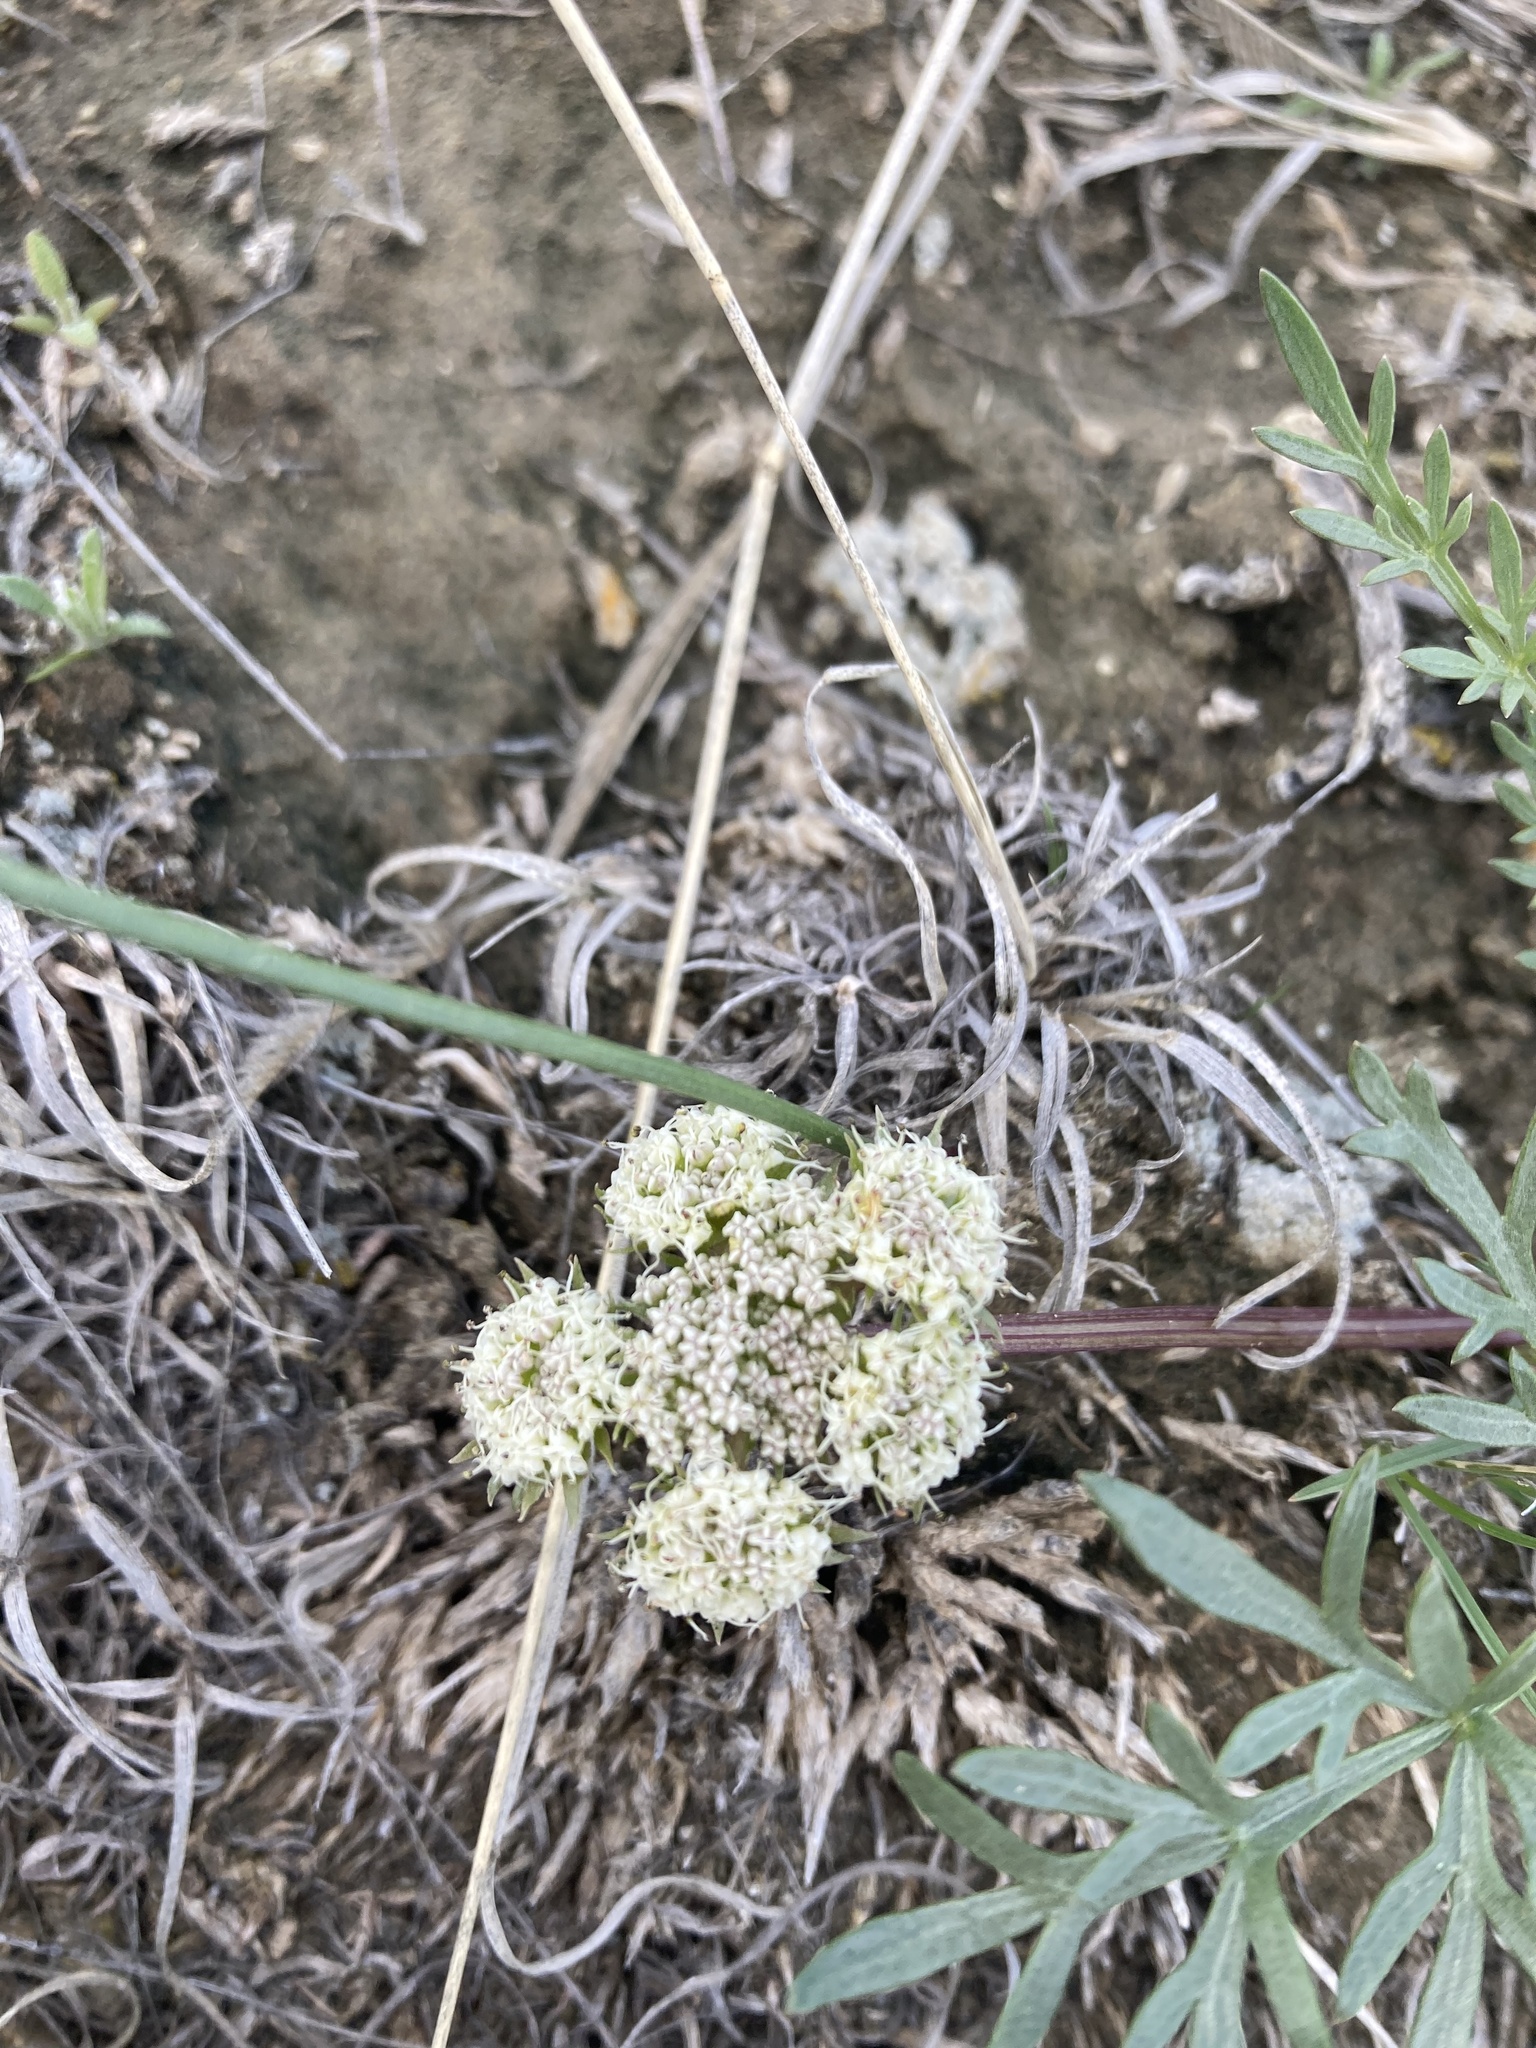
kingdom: Plantae
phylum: Tracheophyta
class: Magnoliopsida
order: Apiales
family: Apiaceae
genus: Cymopterus
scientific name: Cymopterus glomeratus
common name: Plains spring parsley
